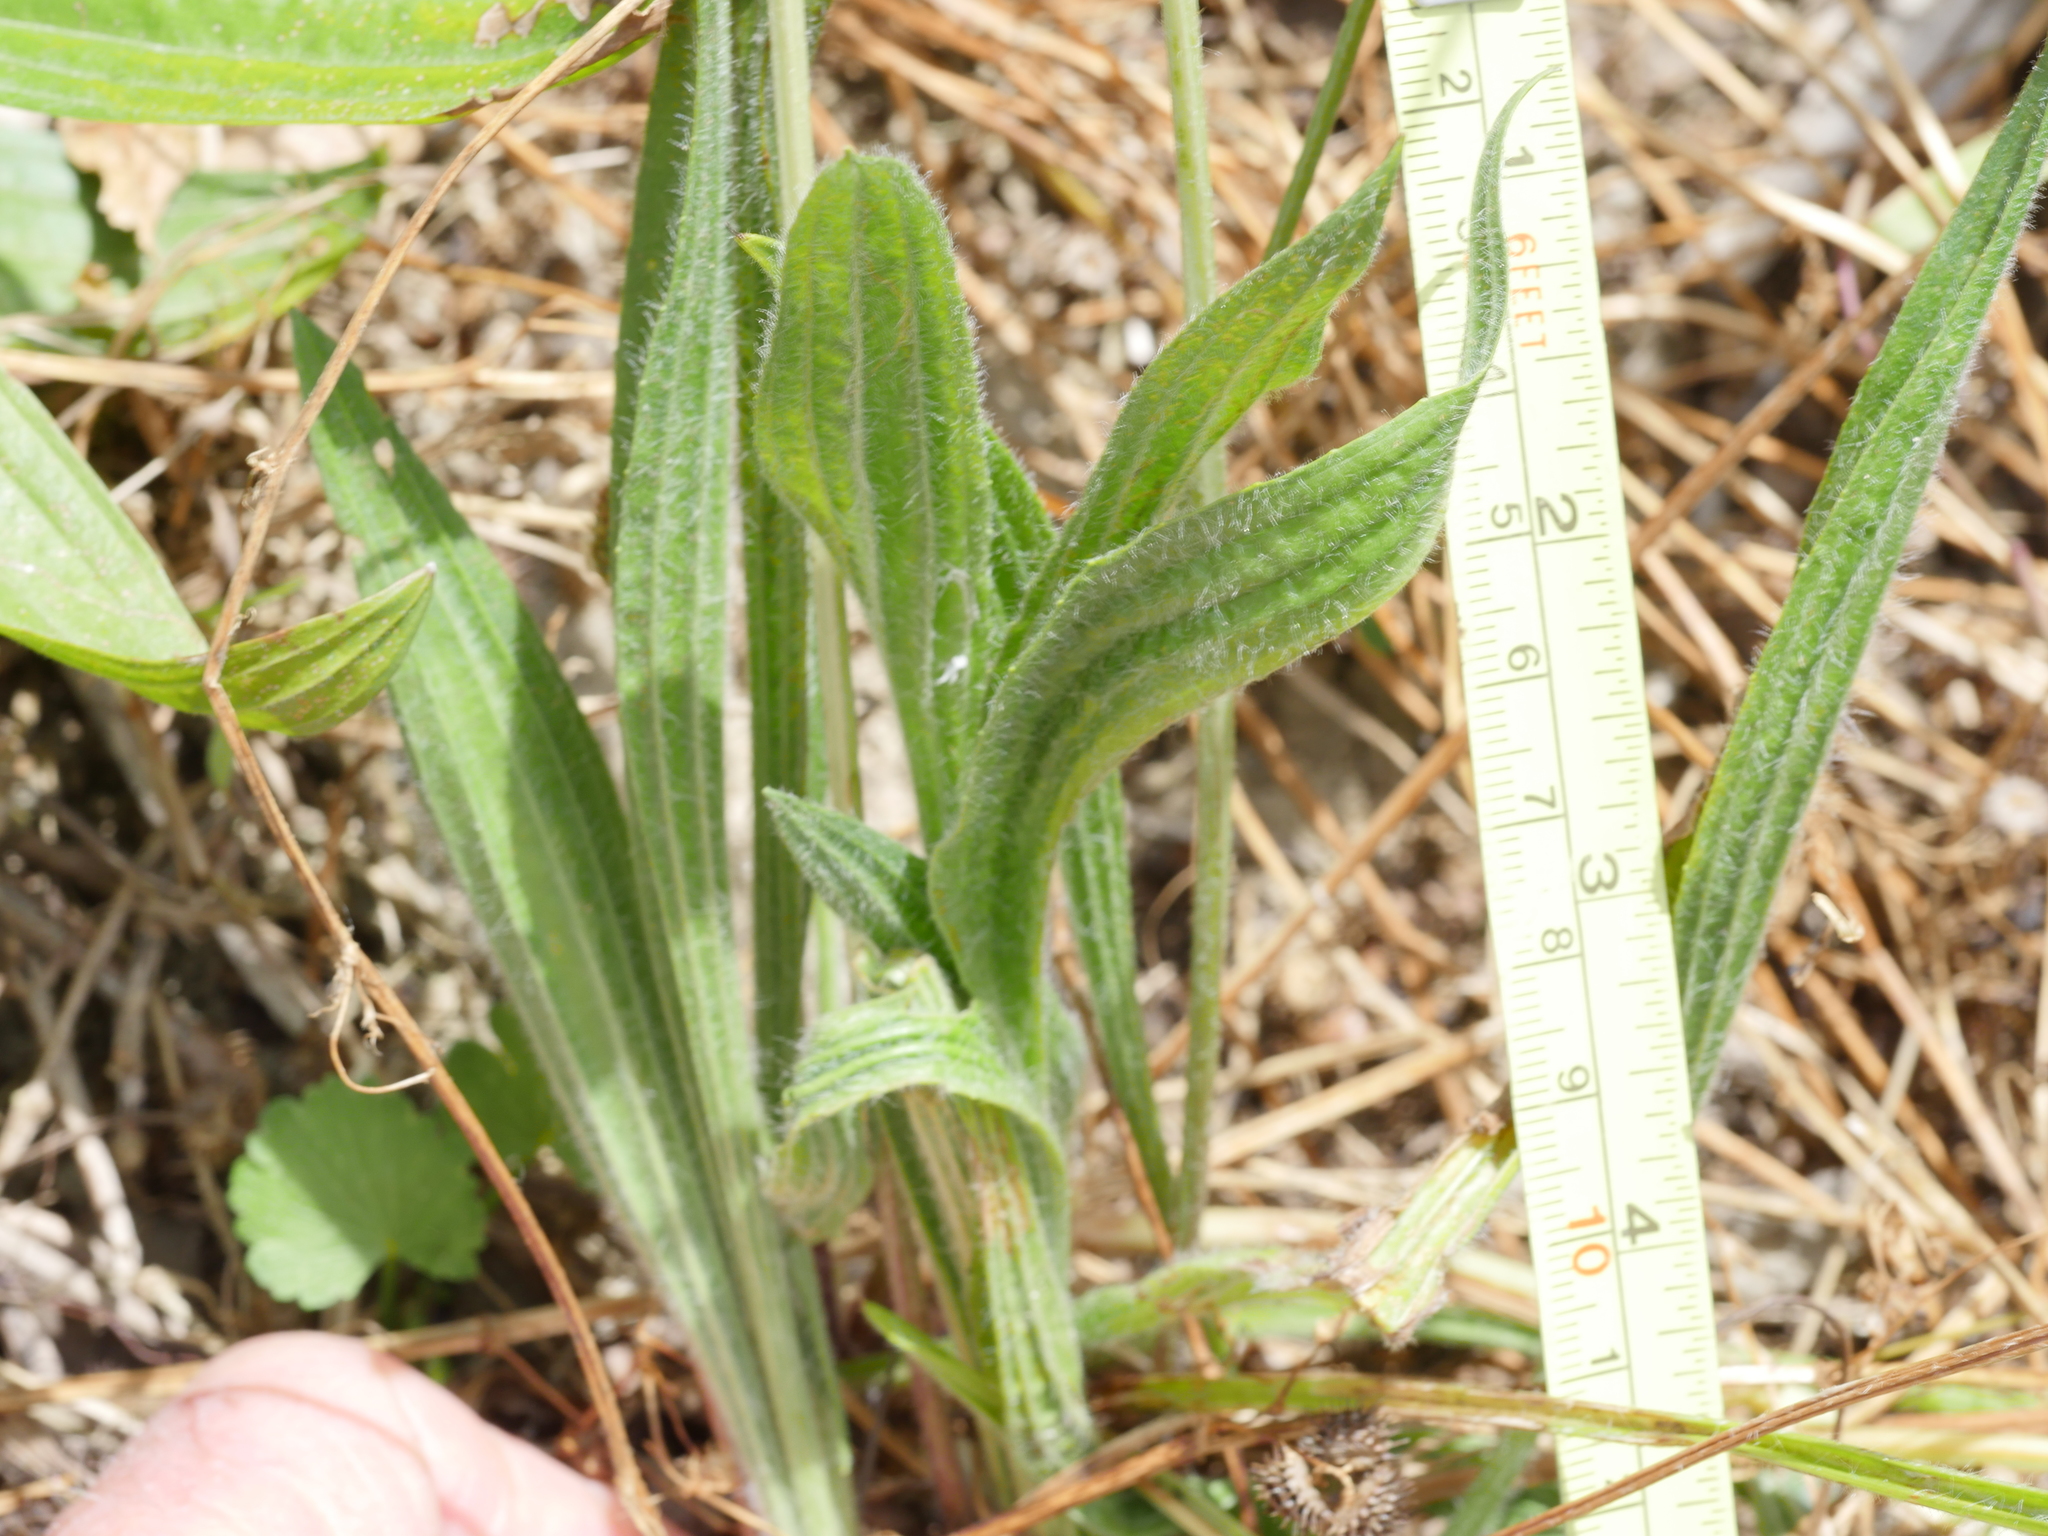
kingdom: Plantae
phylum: Tracheophyta
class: Magnoliopsida
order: Lamiales
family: Plantaginaceae
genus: Plantago
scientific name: Plantago lanceolata
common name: Ribwort plantain
